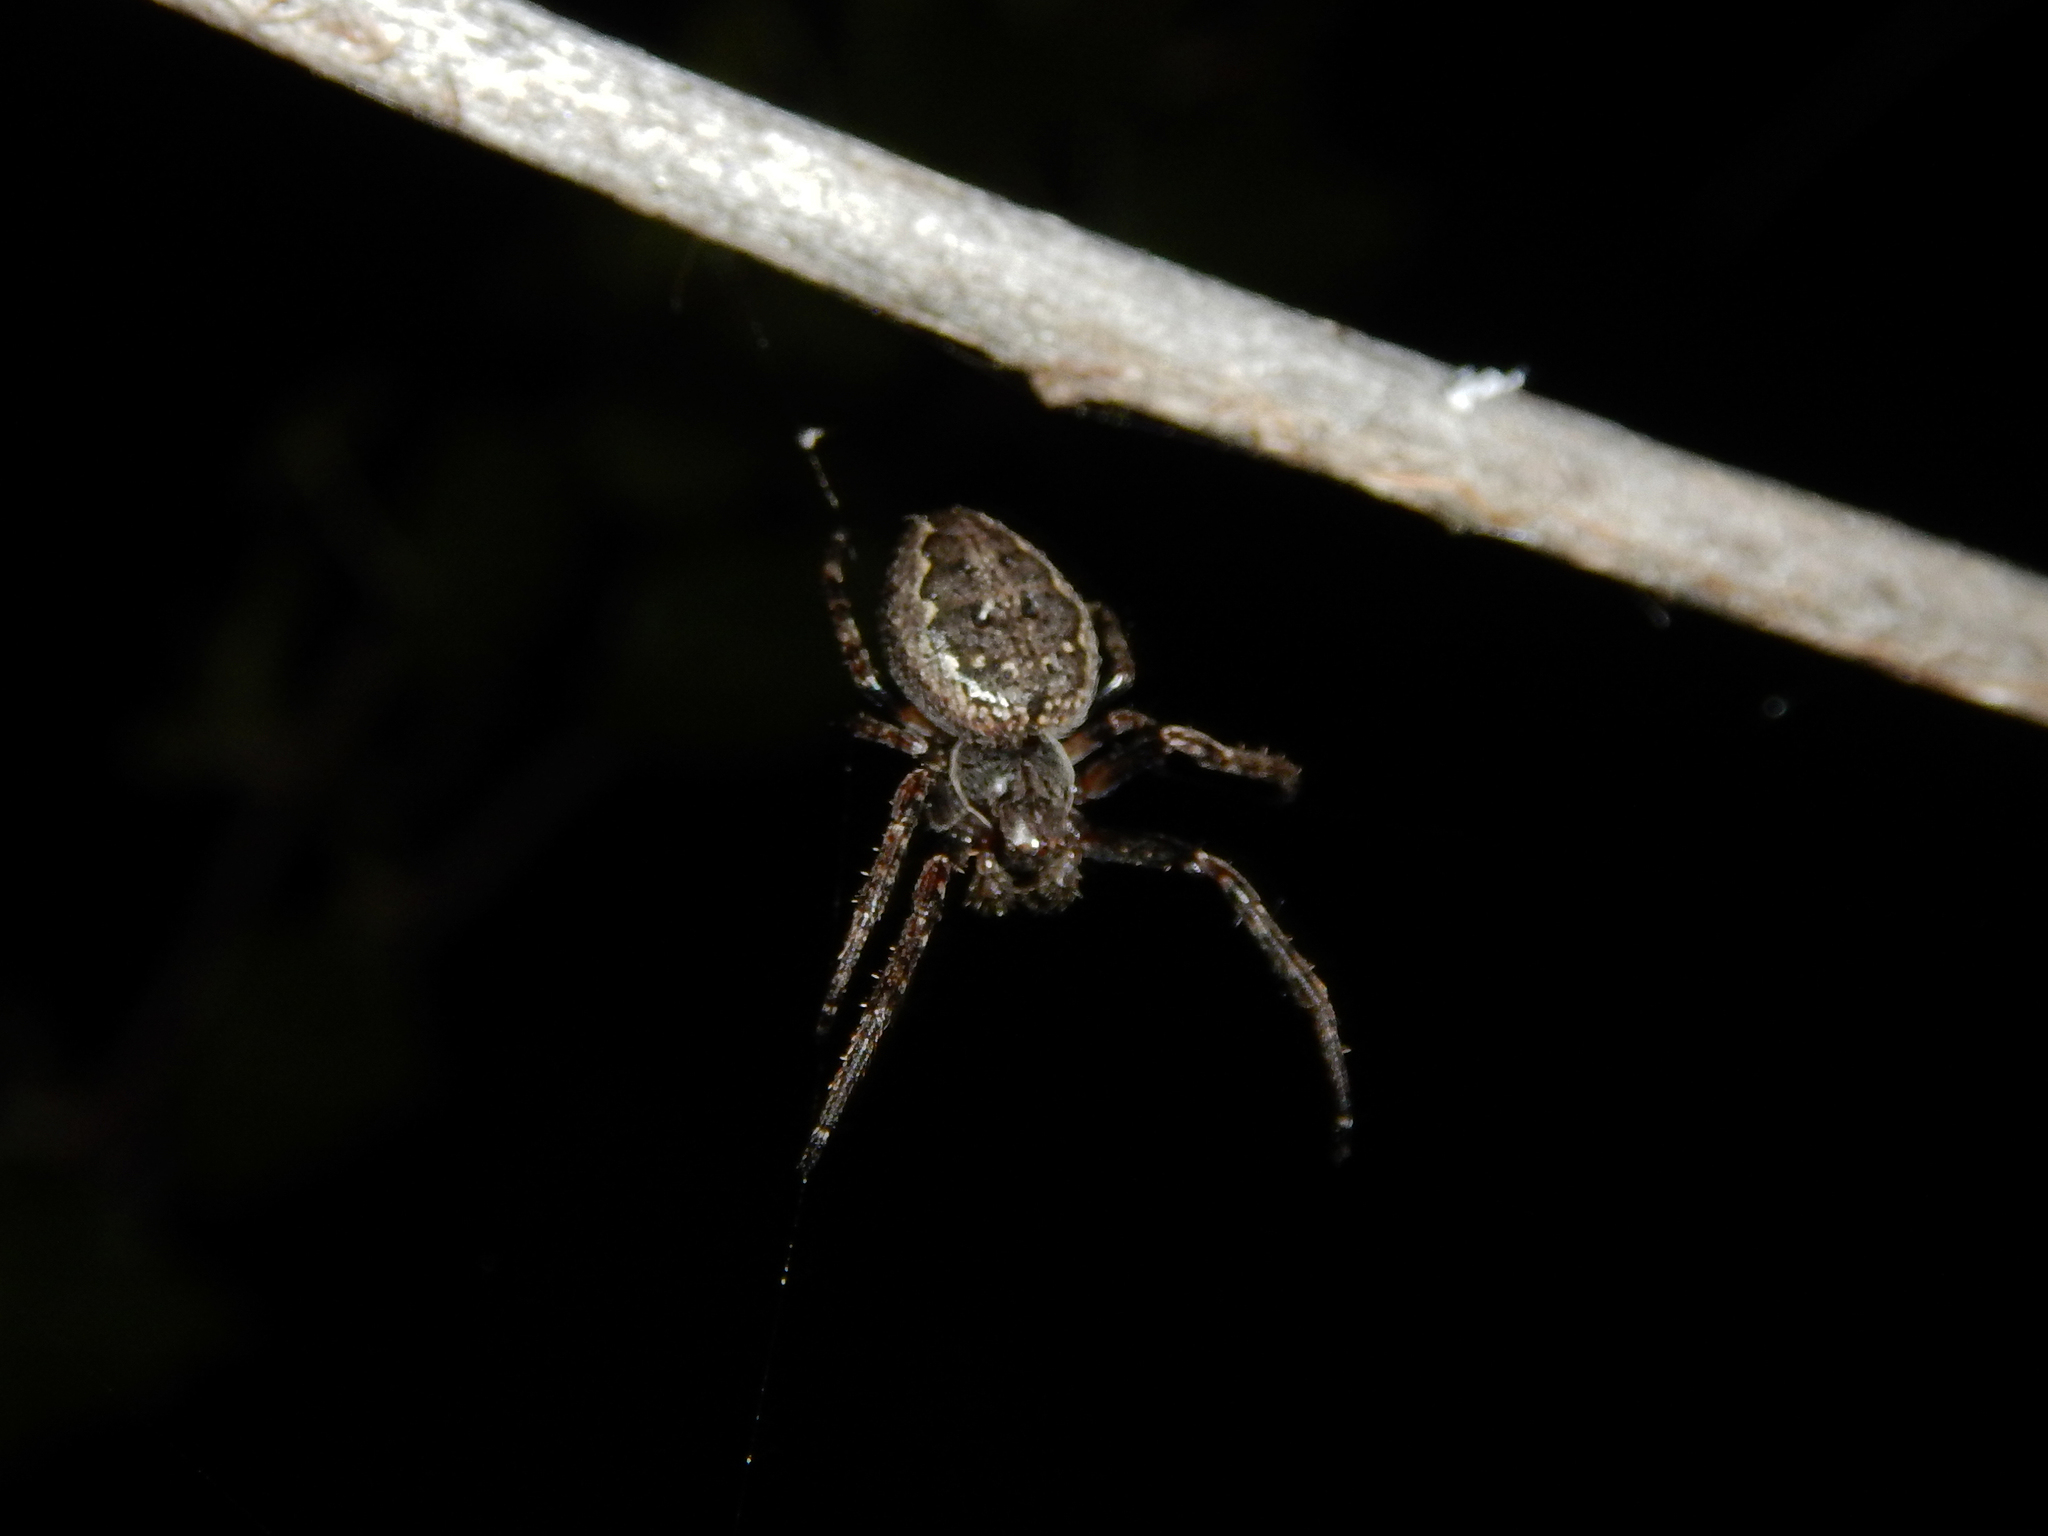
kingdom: Animalia
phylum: Arthropoda
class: Arachnida
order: Araneae
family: Araneidae
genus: Nuctenea
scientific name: Nuctenea umbratica
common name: Toad spider
